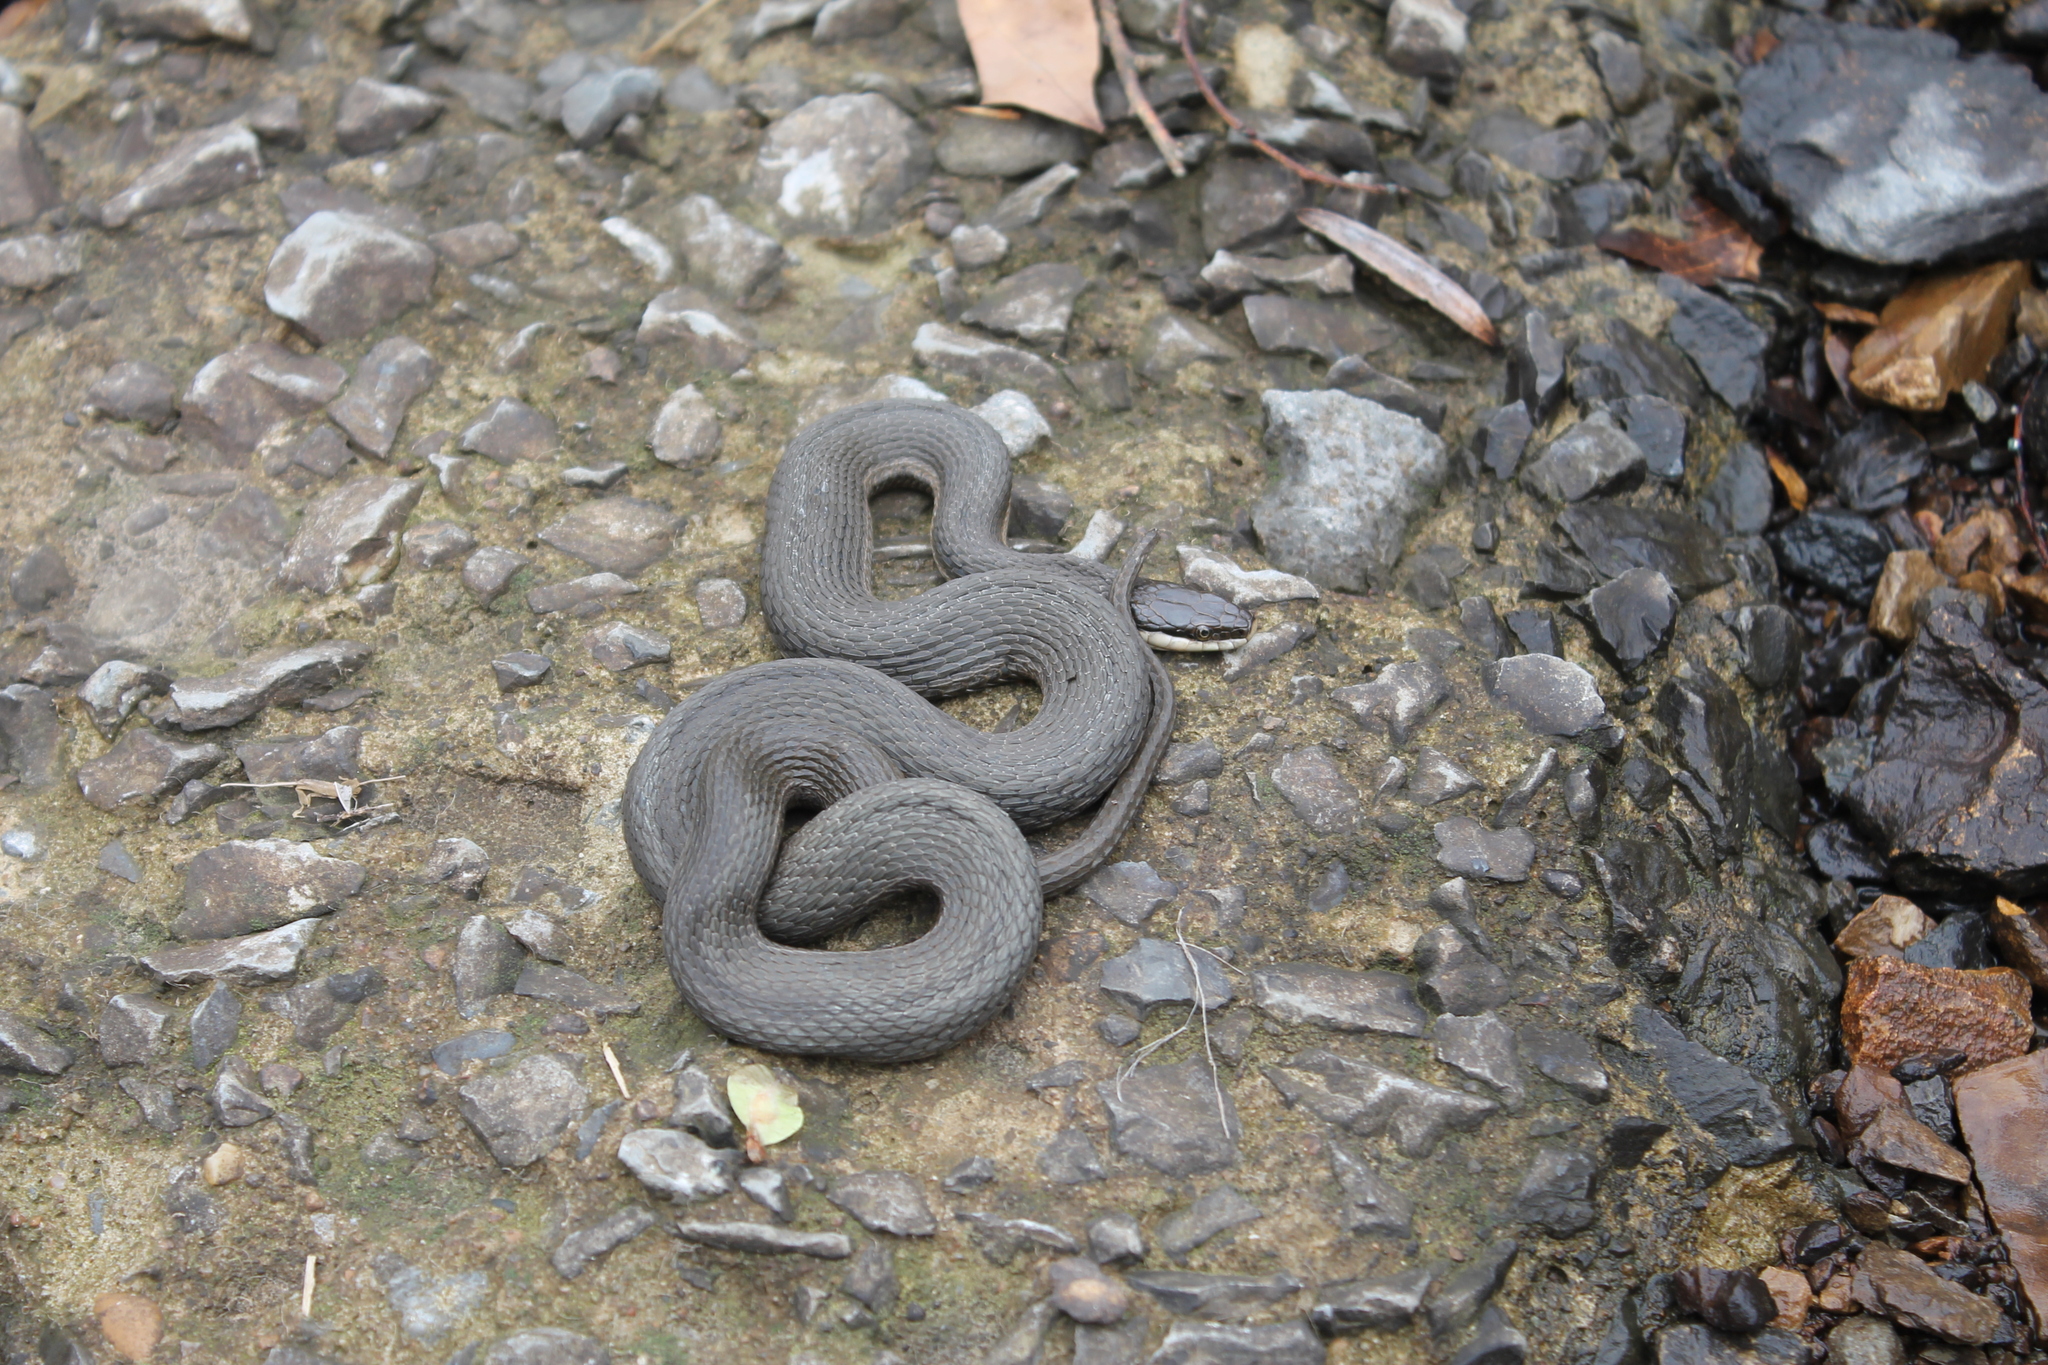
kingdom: Animalia
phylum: Chordata
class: Squamata
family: Colubridae
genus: Regina
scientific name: Regina septemvittata
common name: Queen snake
